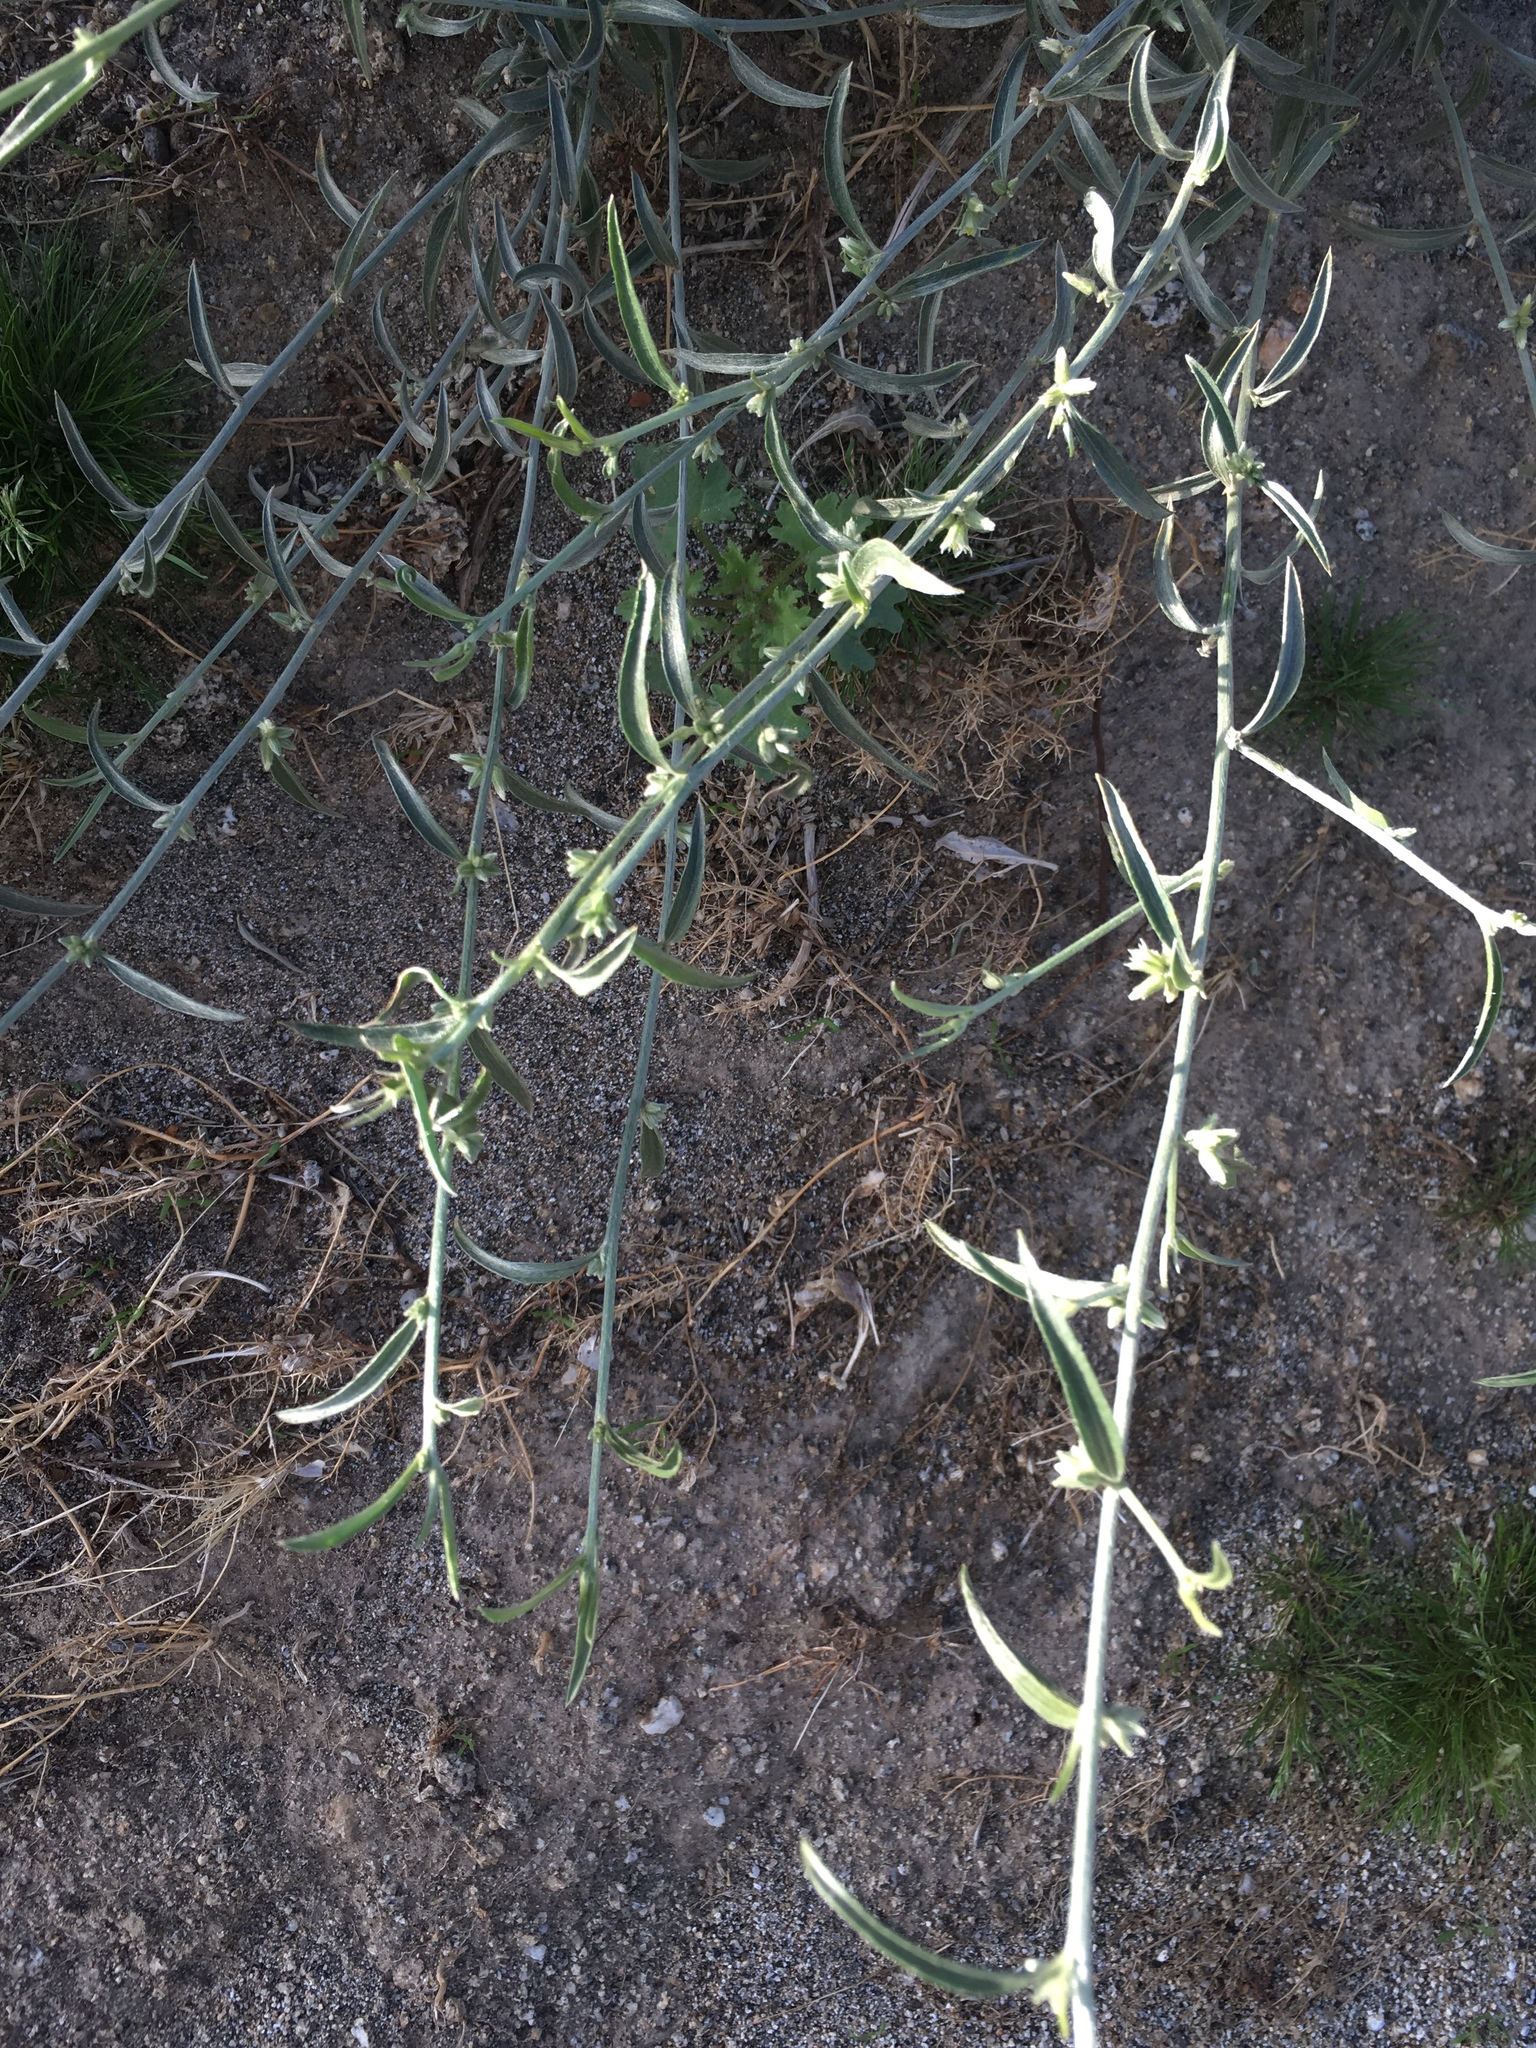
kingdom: Plantae
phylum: Tracheophyta
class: Magnoliopsida
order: Malpighiales
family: Euphorbiaceae
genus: Ditaxis
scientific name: Ditaxis lanceolata
